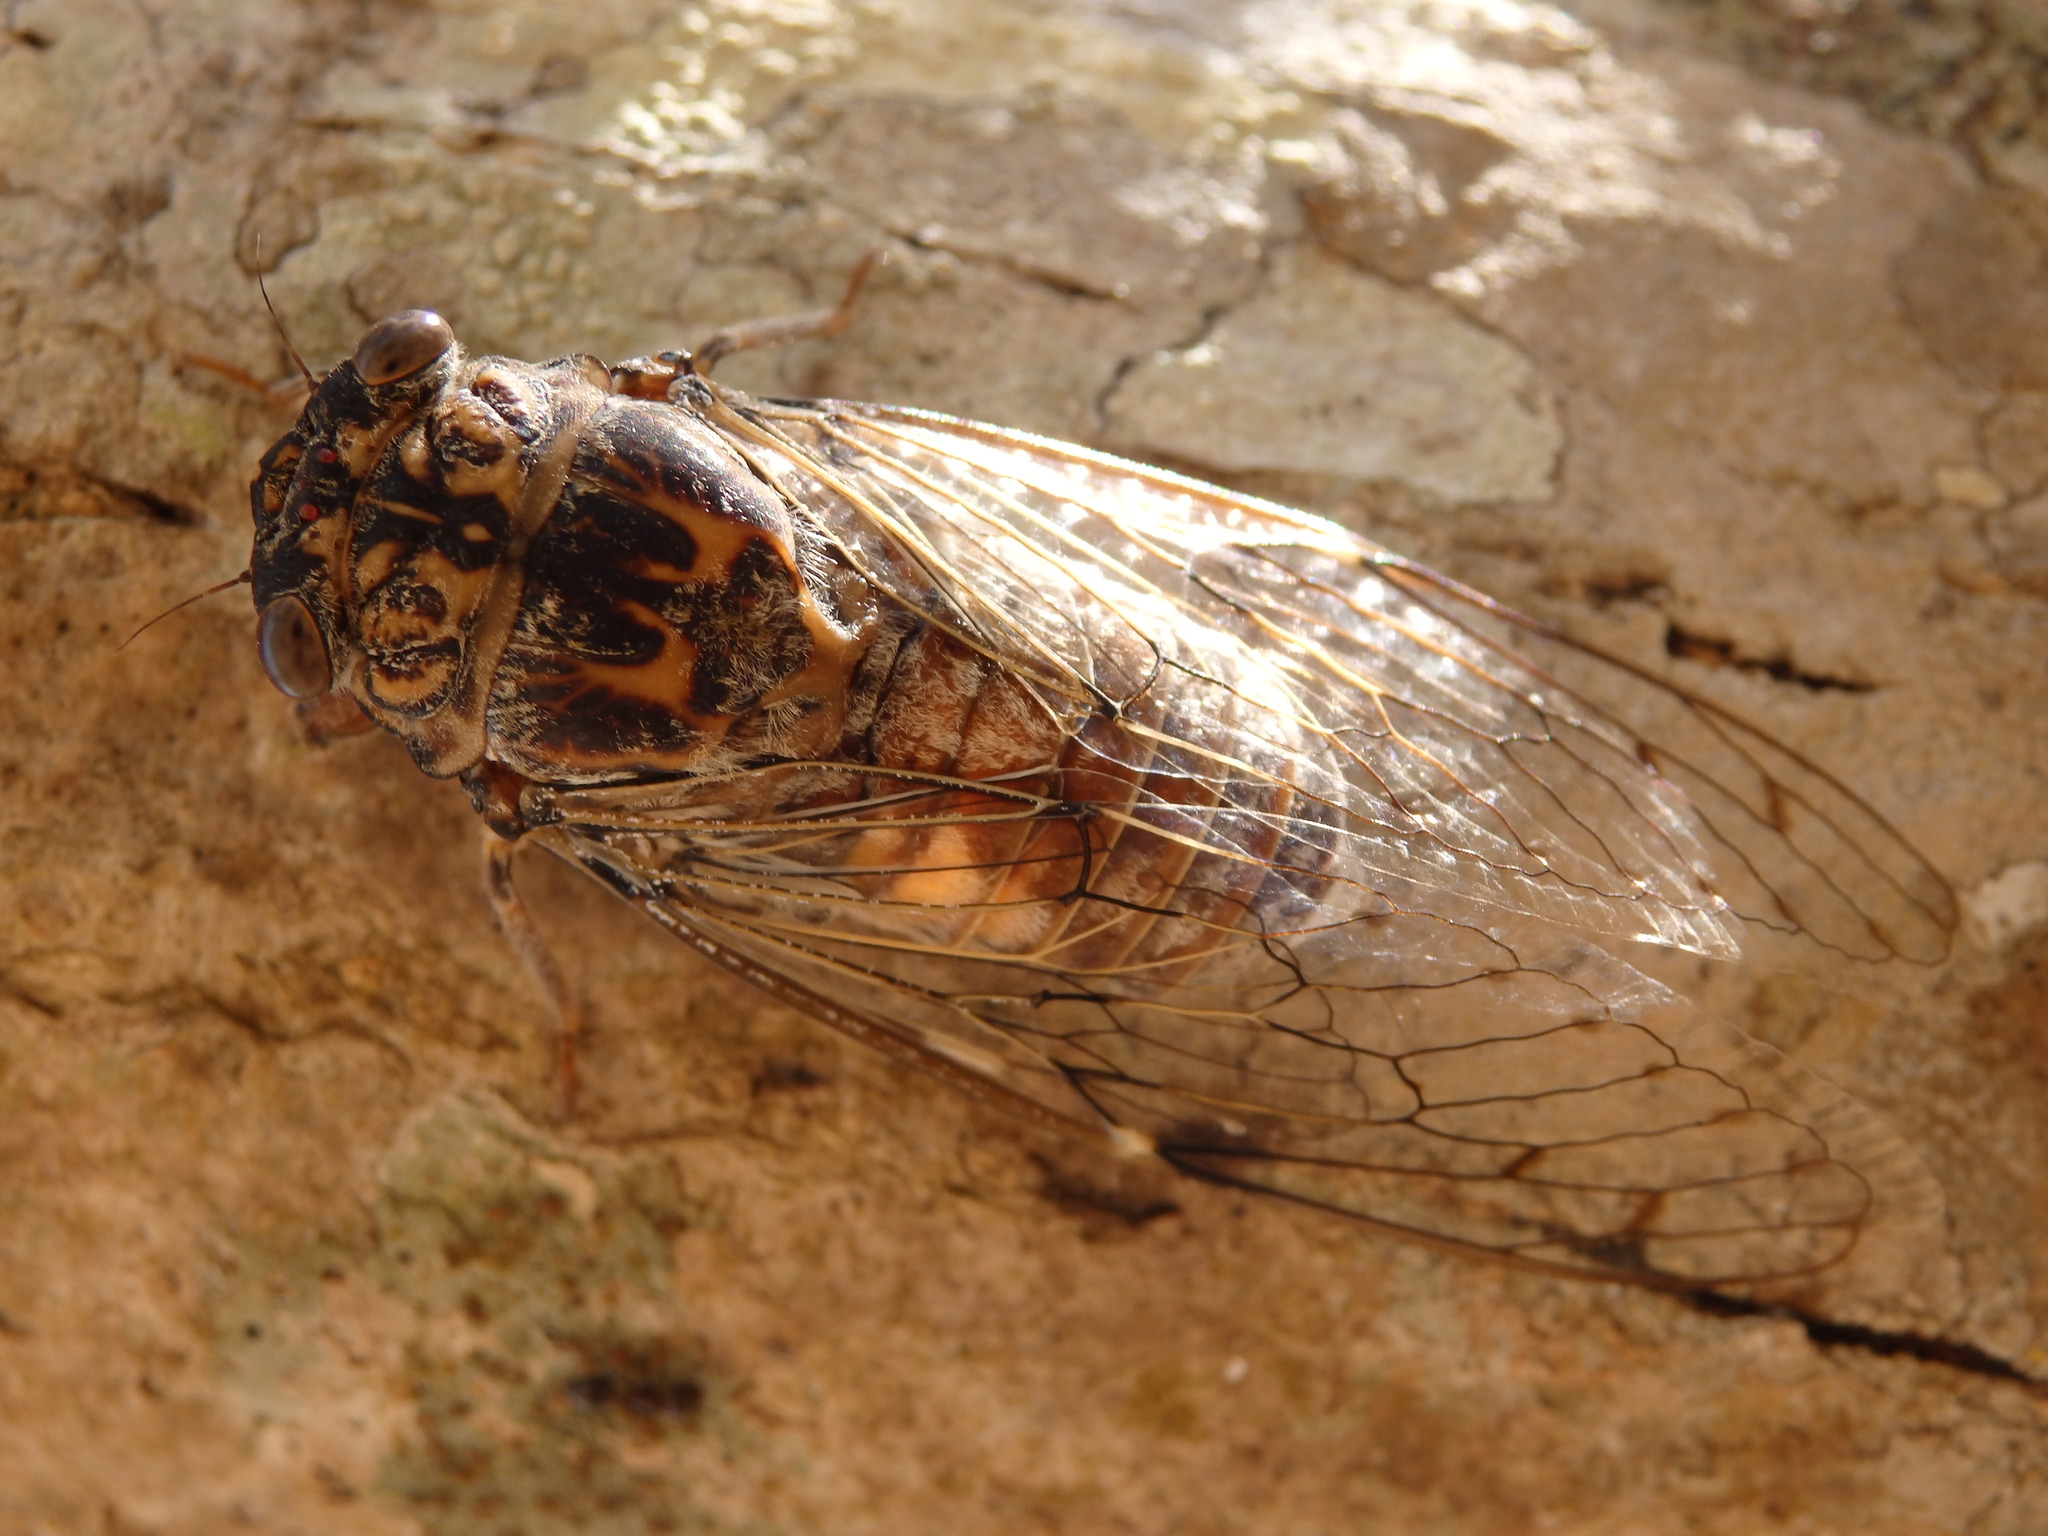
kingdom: Animalia
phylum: Arthropoda
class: Insecta
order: Hemiptera
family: Cicadidae
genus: Cicada
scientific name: Cicada barbara
